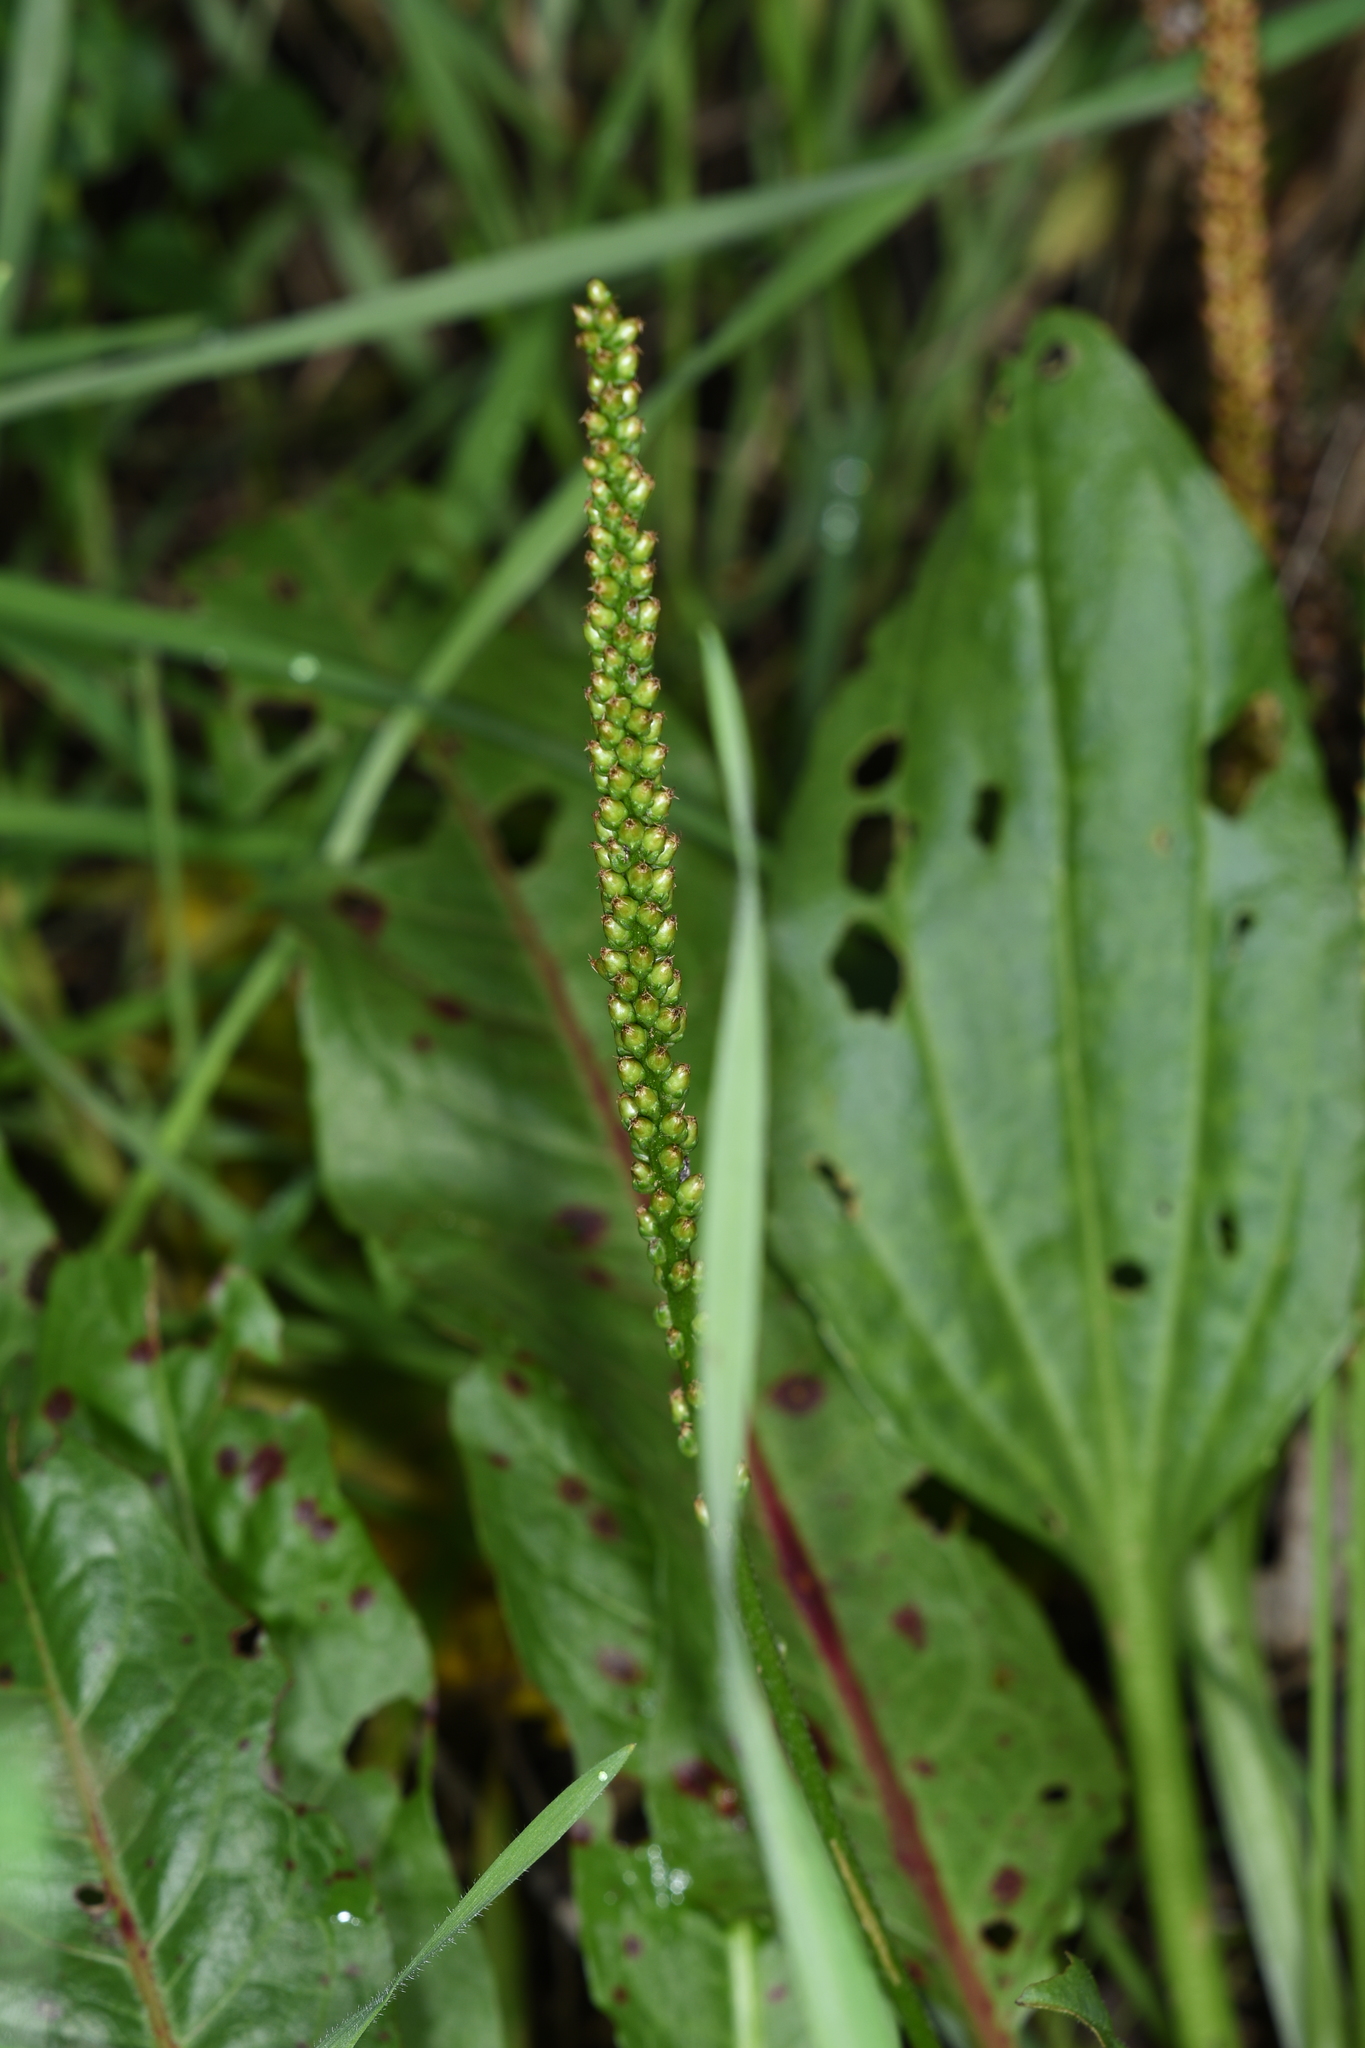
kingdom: Plantae
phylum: Tracheophyta
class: Magnoliopsida
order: Lamiales
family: Plantaginaceae
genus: Plantago
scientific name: Plantago major
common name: Common plantain
